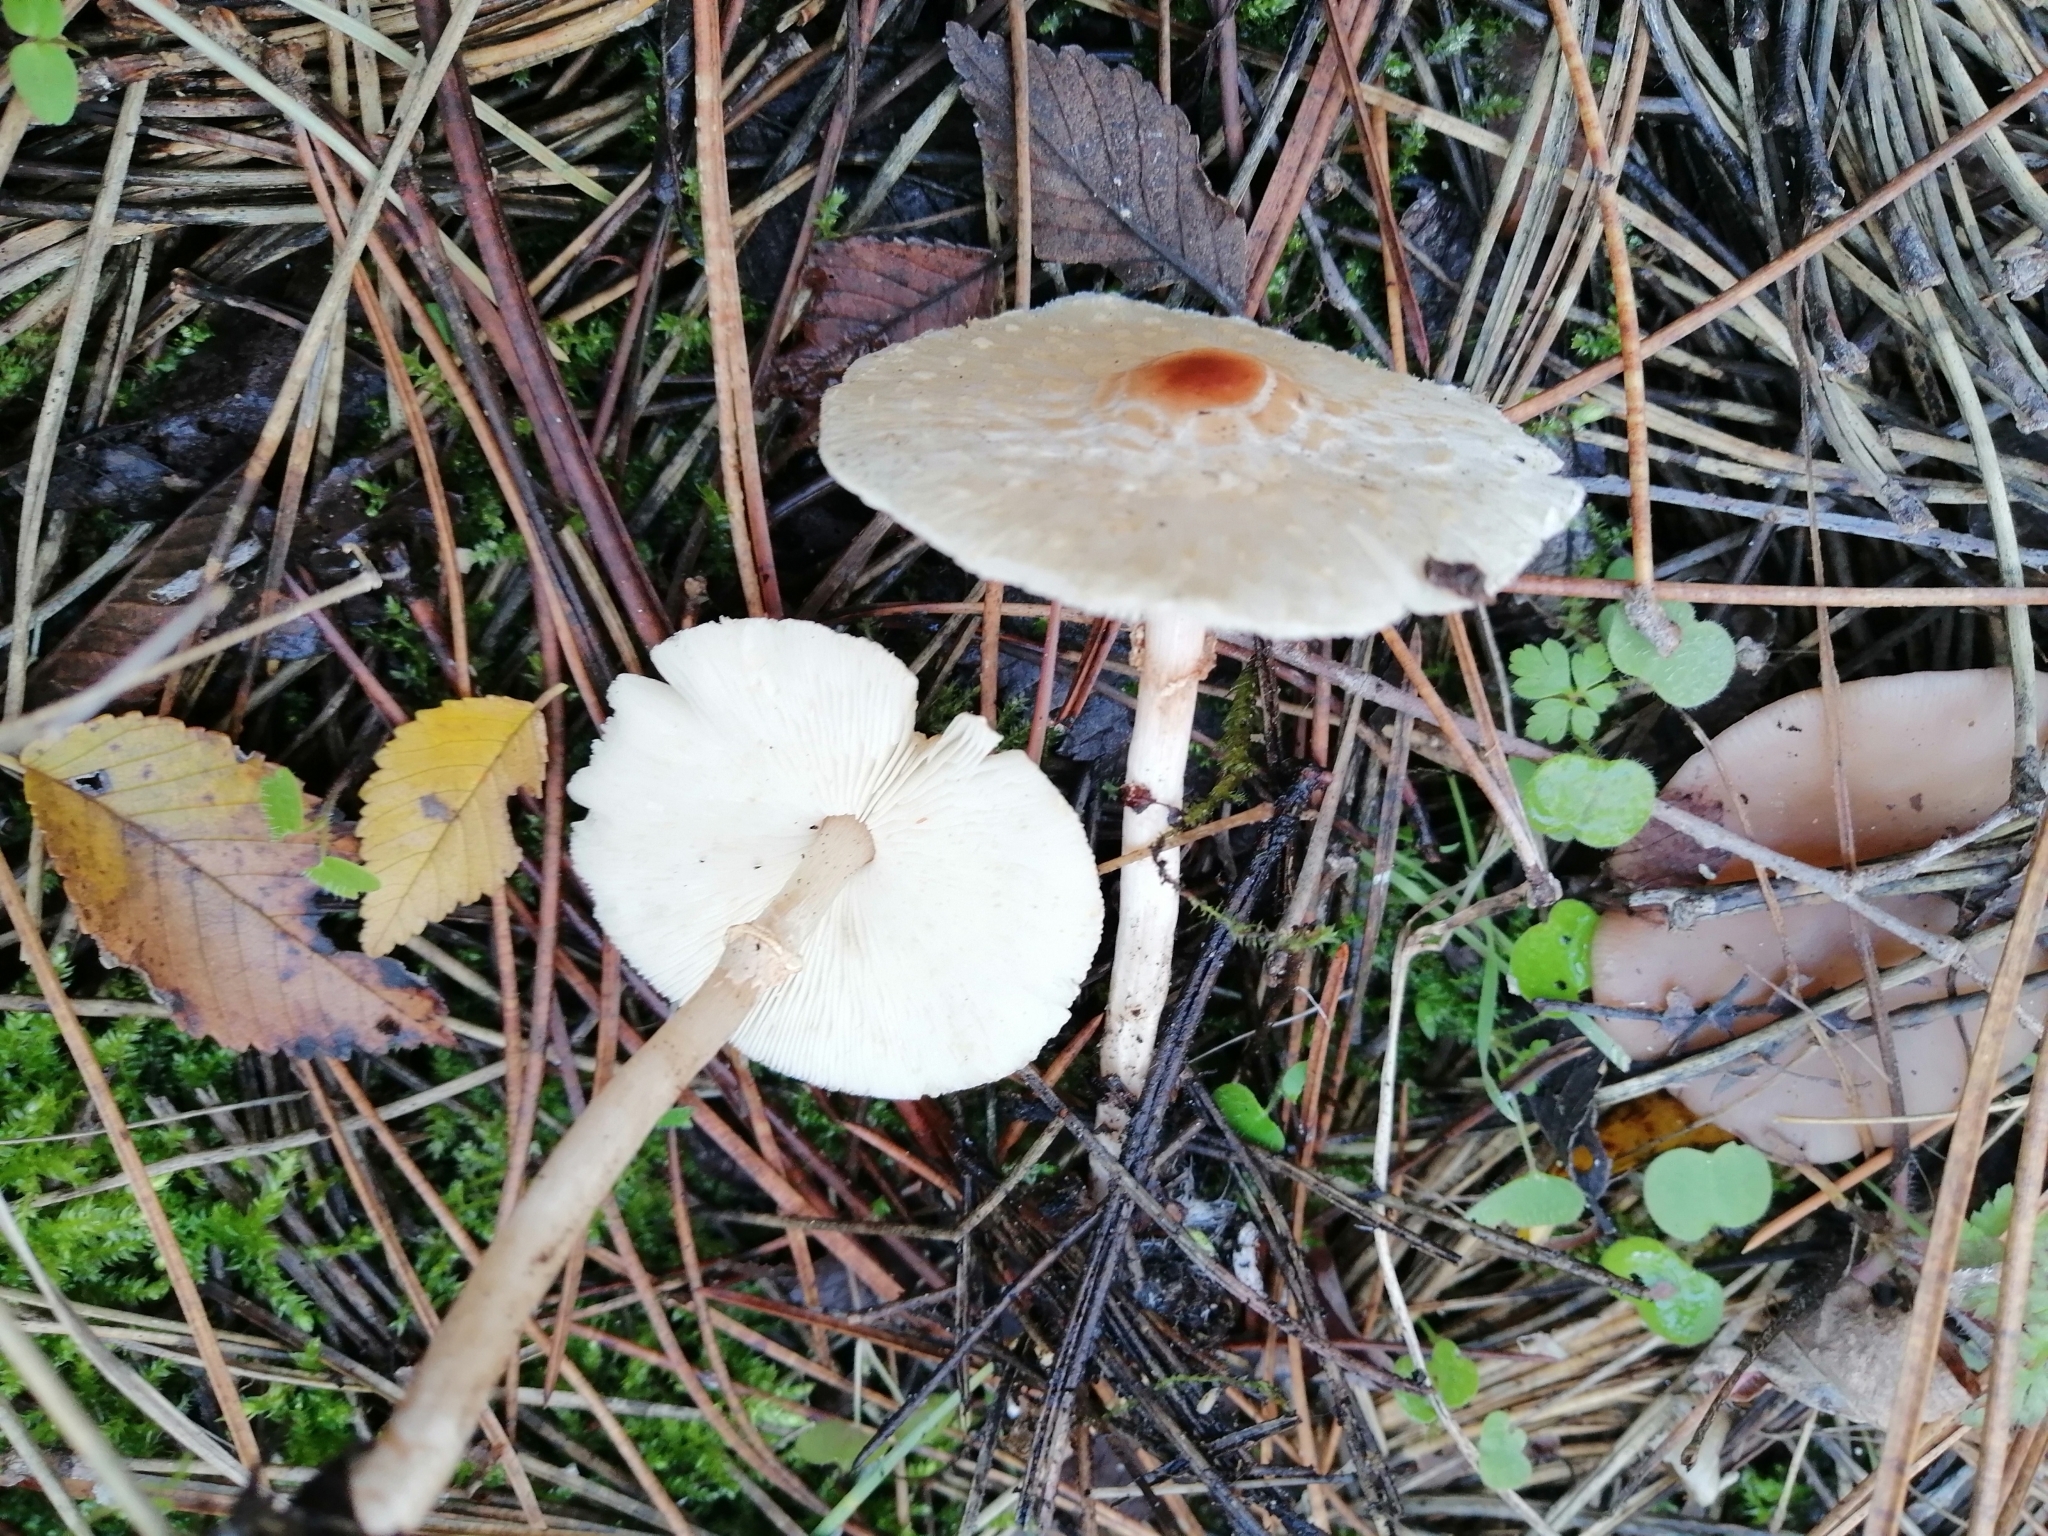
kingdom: Fungi
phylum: Basidiomycota
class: Agaricomycetes
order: Agaricales
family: Agaricaceae
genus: Lepiota
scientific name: Lepiota cristata
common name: Stinking dapperling
